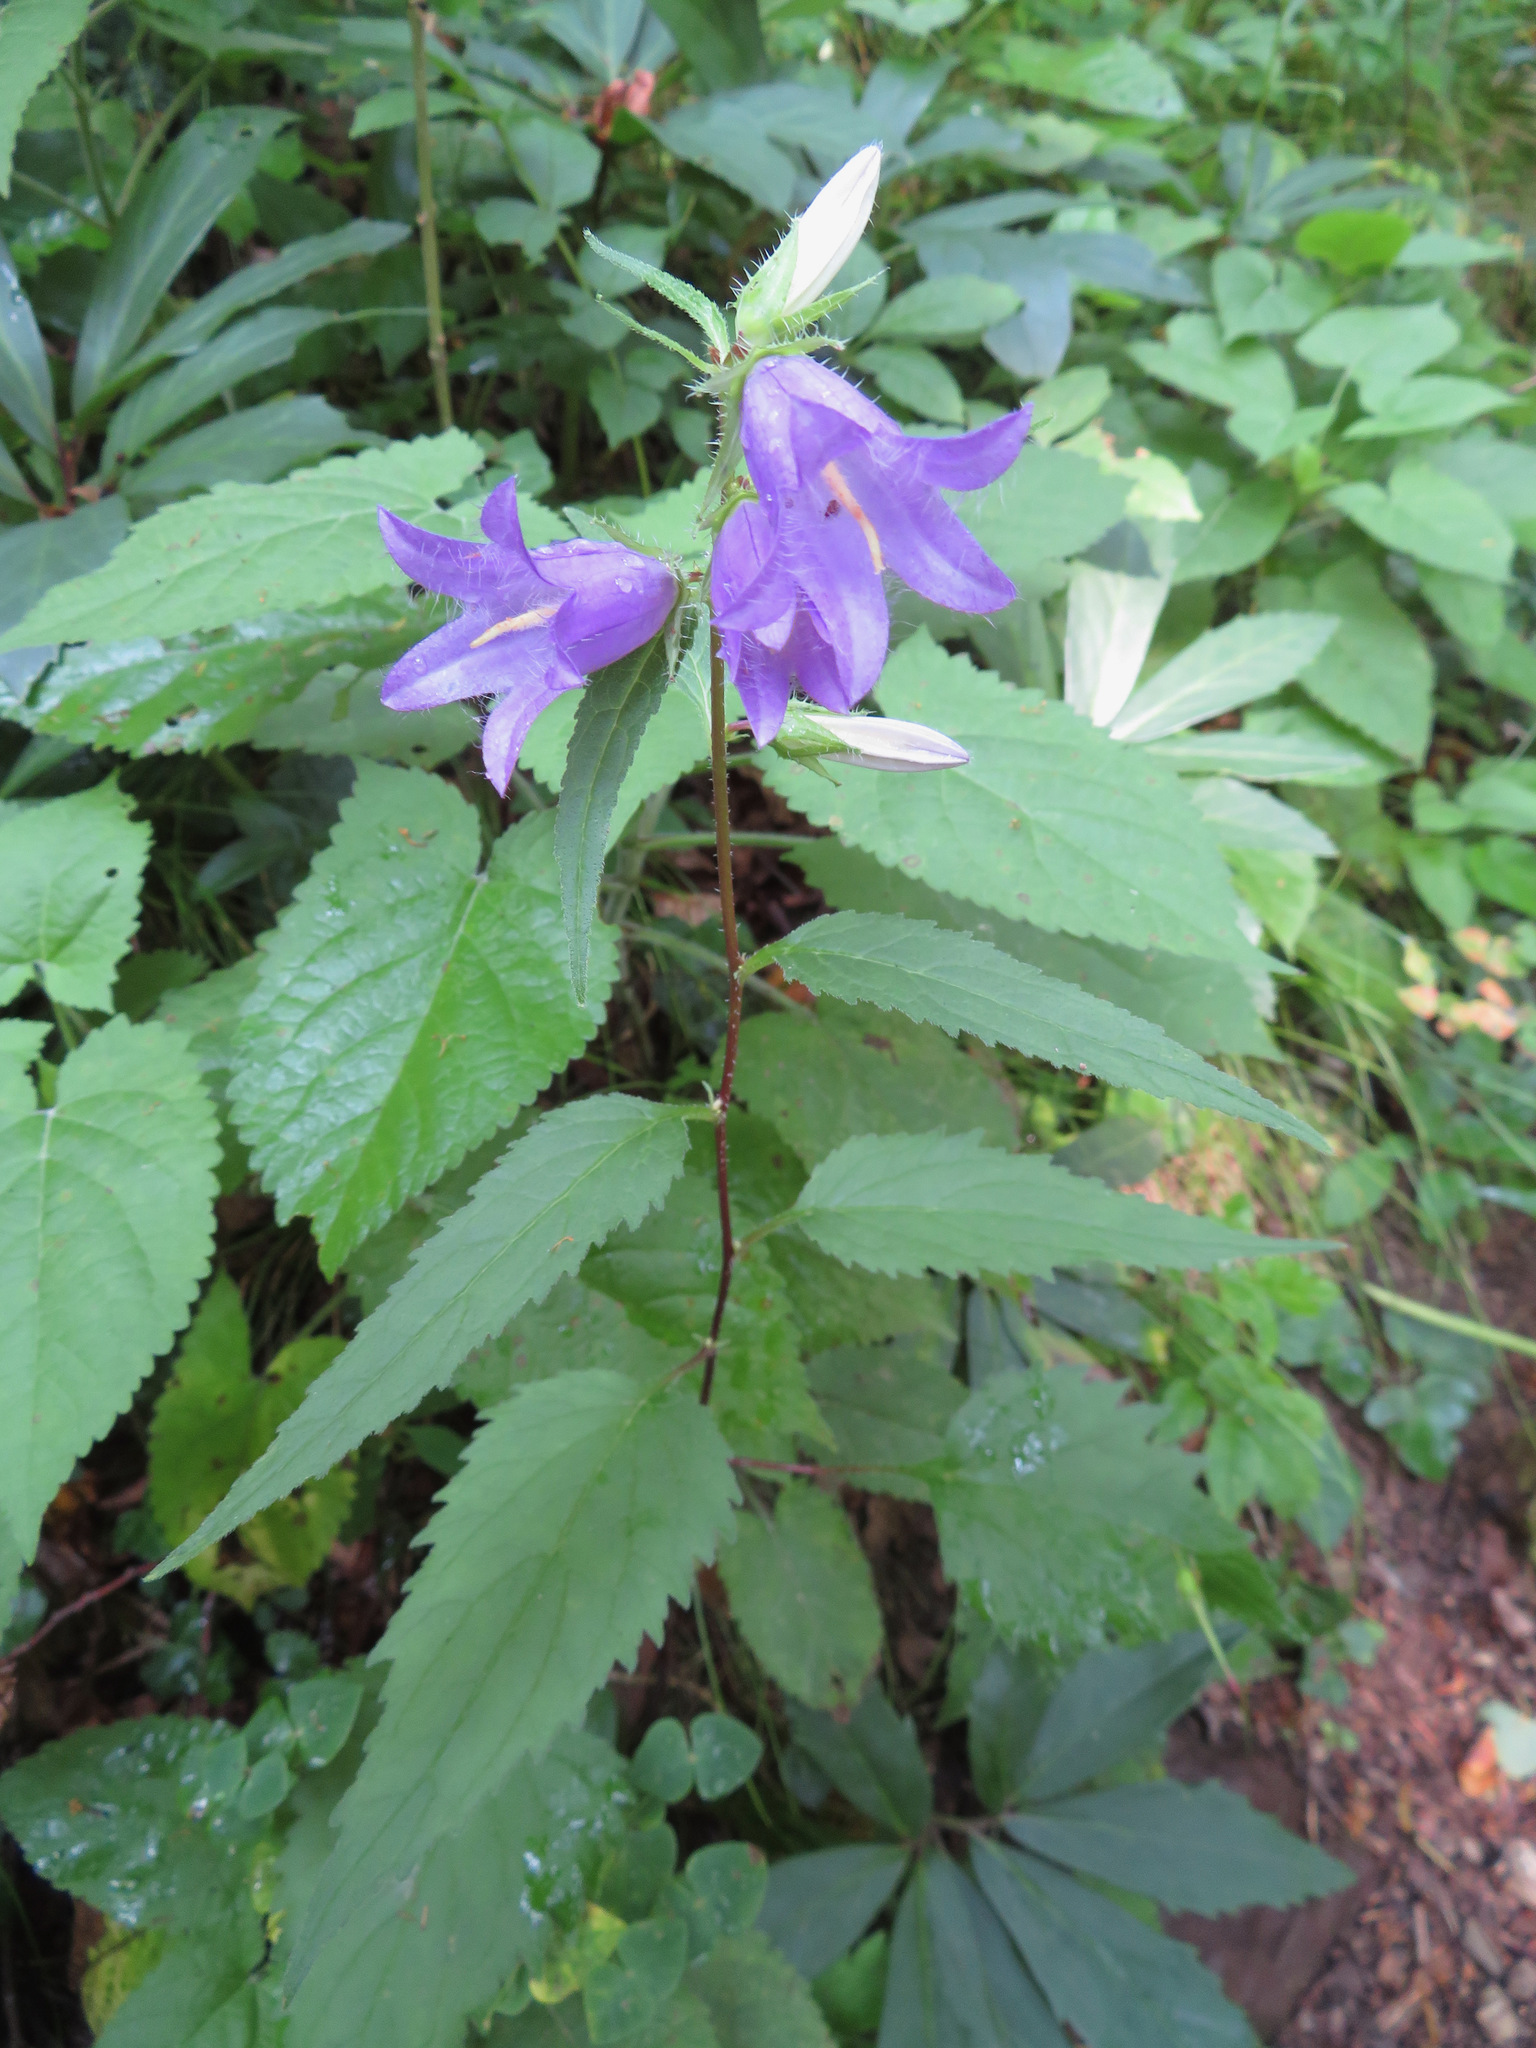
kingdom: Plantae
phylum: Tracheophyta
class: Magnoliopsida
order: Asterales
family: Campanulaceae
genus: Campanula
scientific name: Campanula trachelium
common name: Nettle-leaved bellflower
